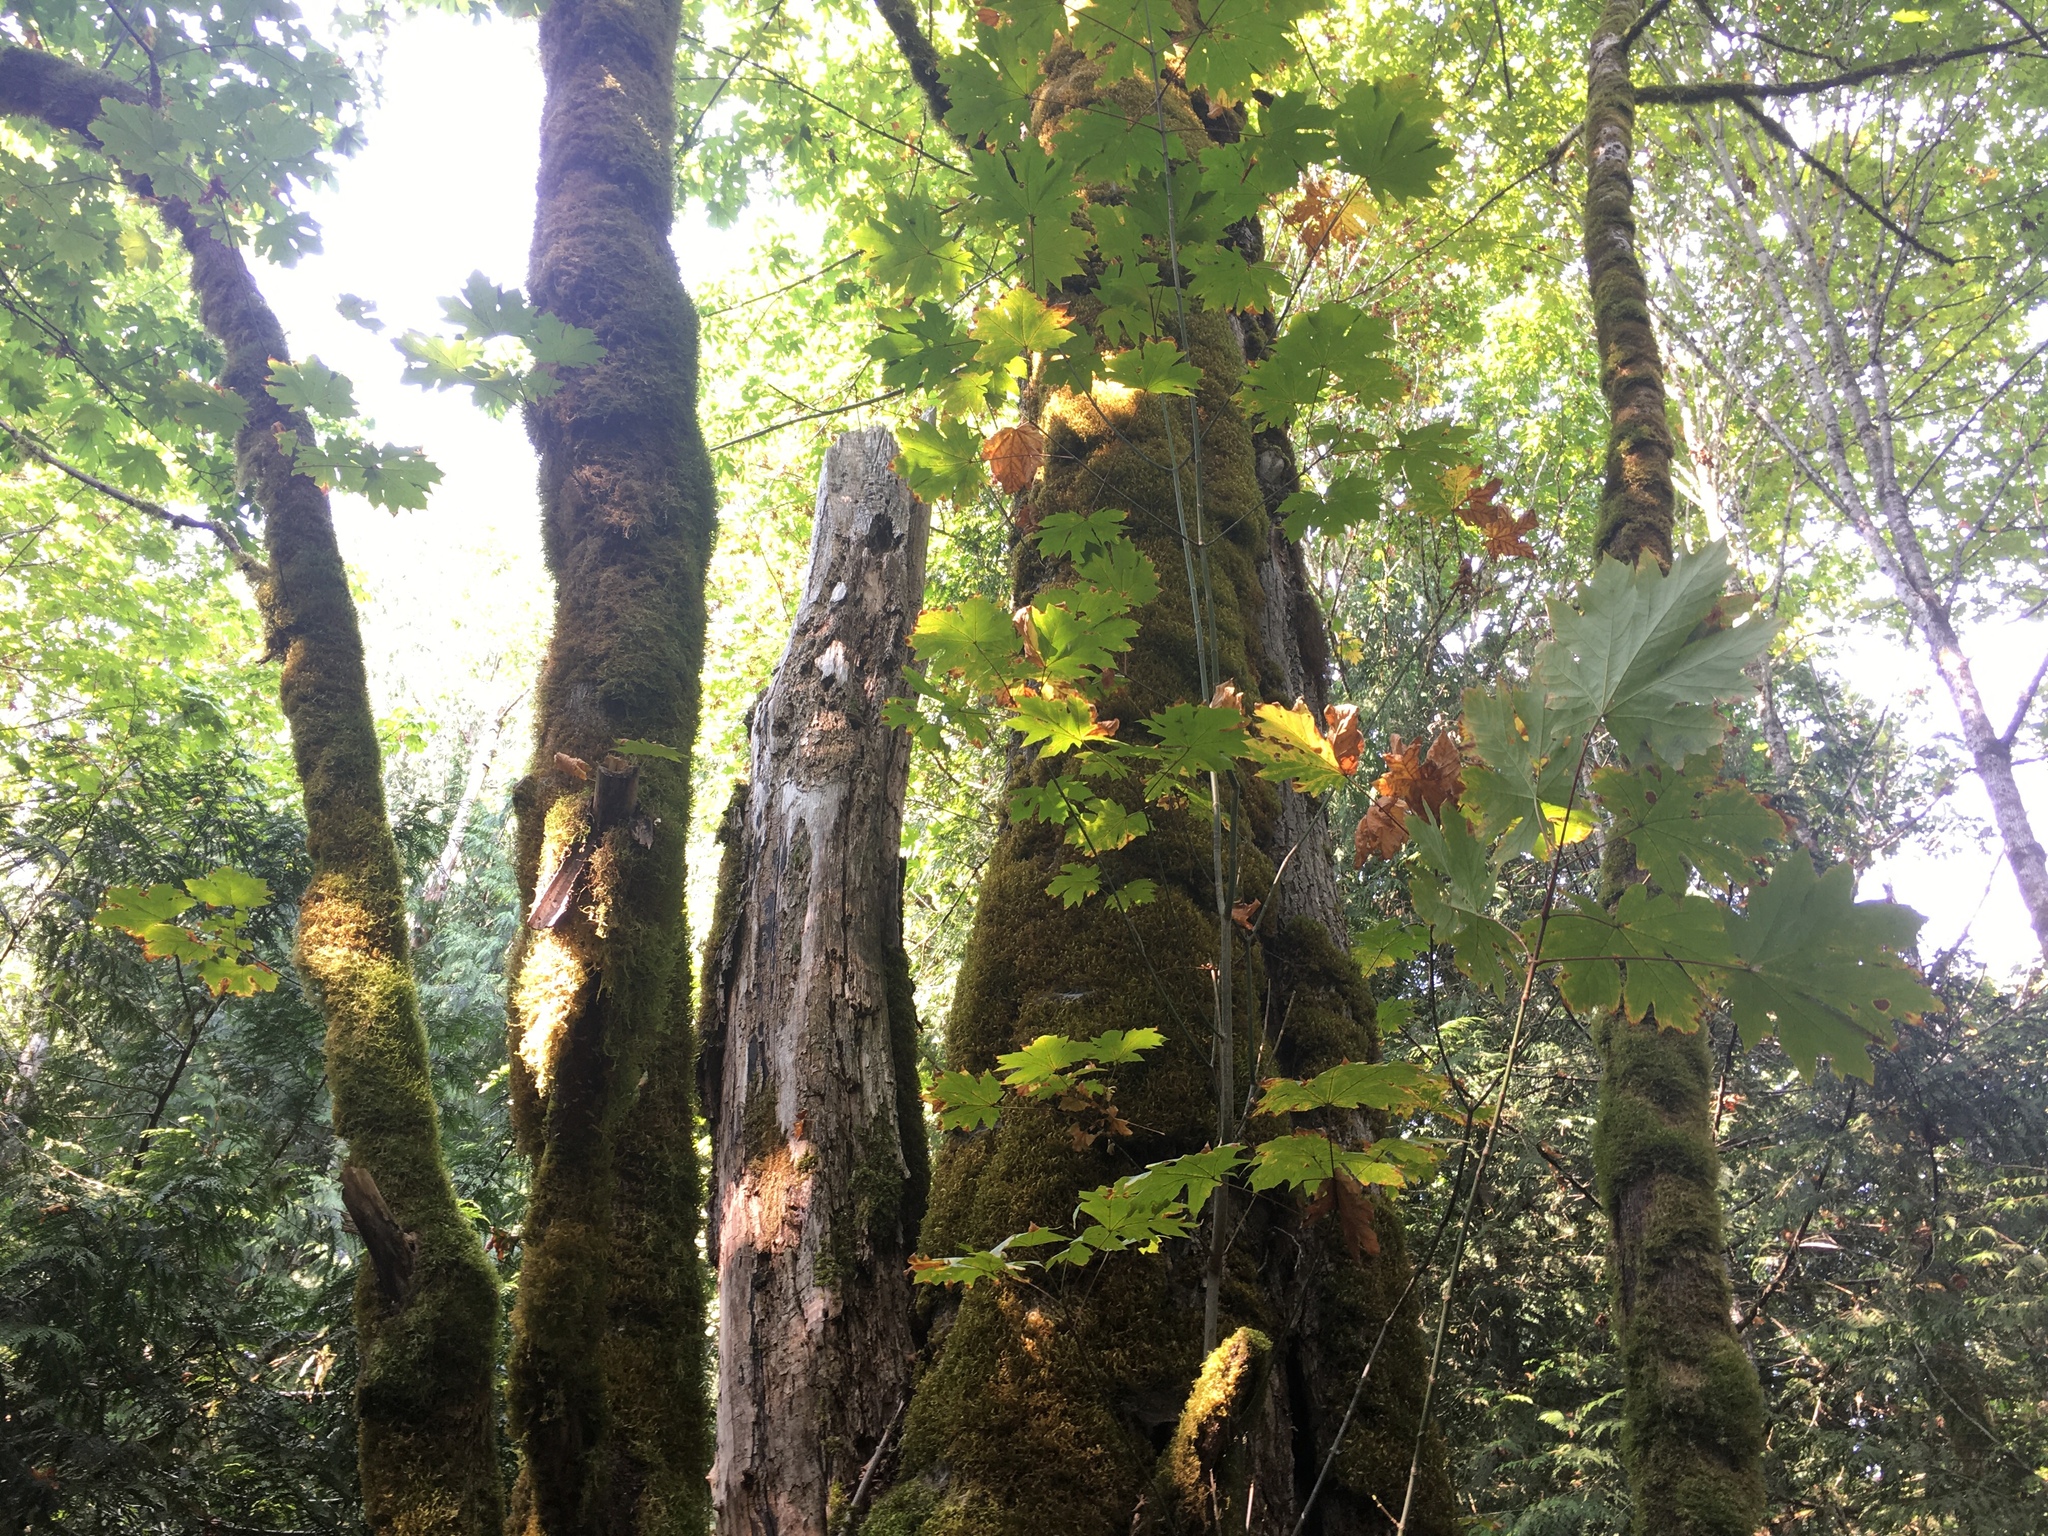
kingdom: Plantae
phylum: Tracheophyta
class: Magnoliopsida
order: Sapindales
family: Sapindaceae
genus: Acer
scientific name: Acer macrophyllum
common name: Oregon maple
